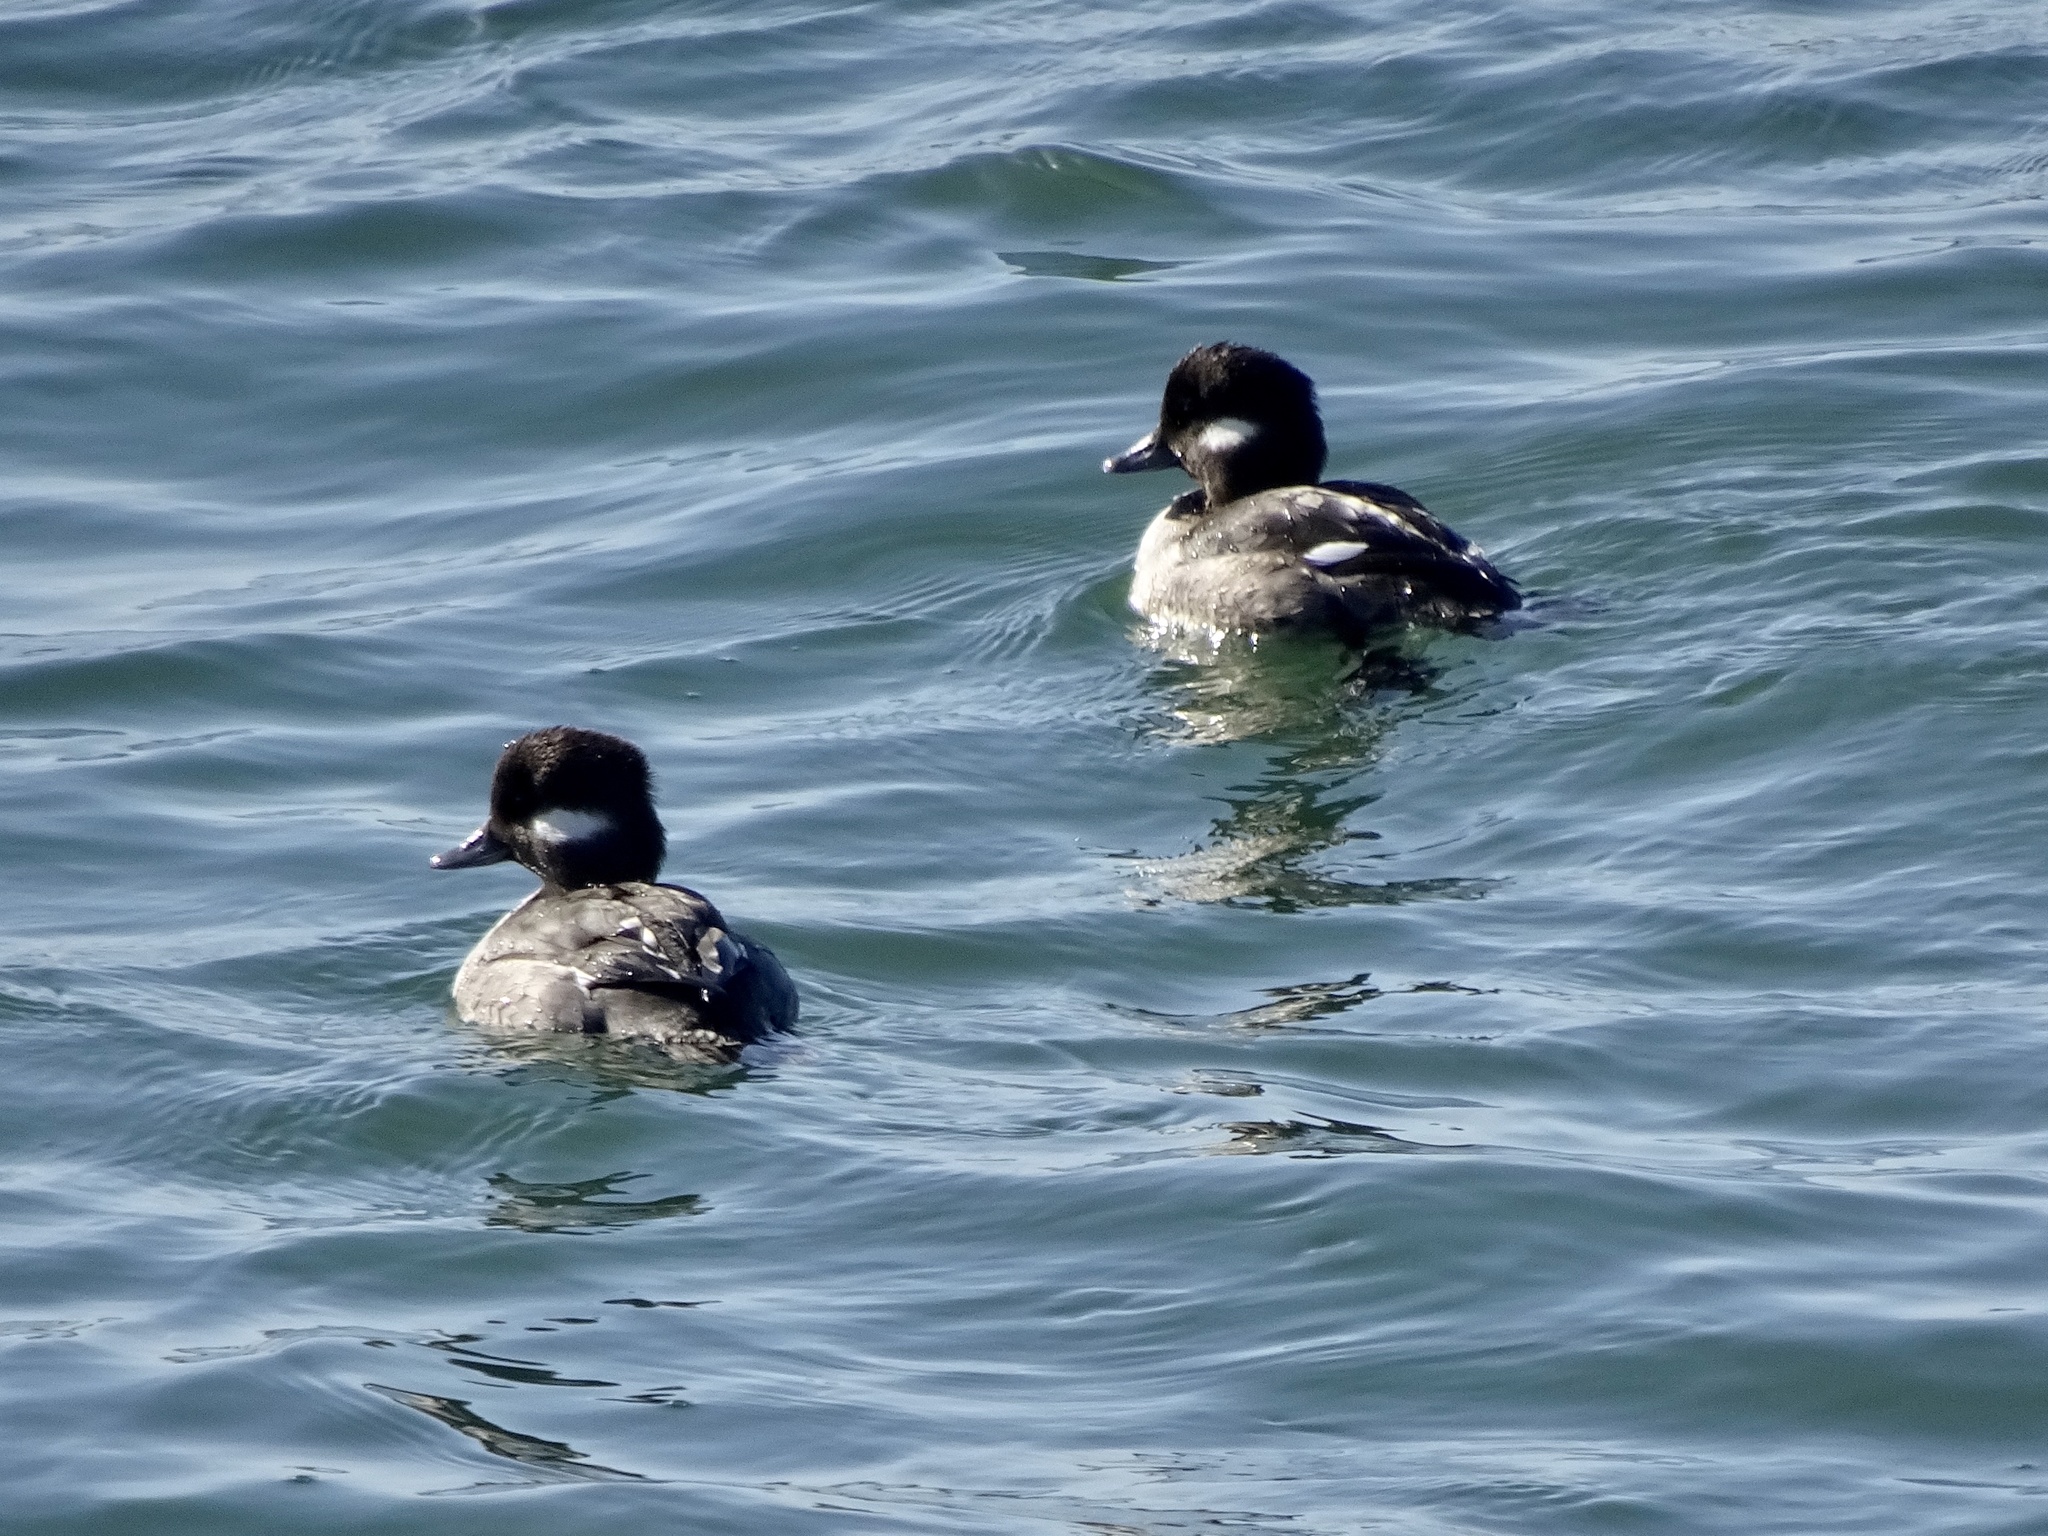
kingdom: Animalia
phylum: Chordata
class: Aves
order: Anseriformes
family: Anatidae
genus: Bucephala
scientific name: Bucephala albeola
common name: Bufflehead
